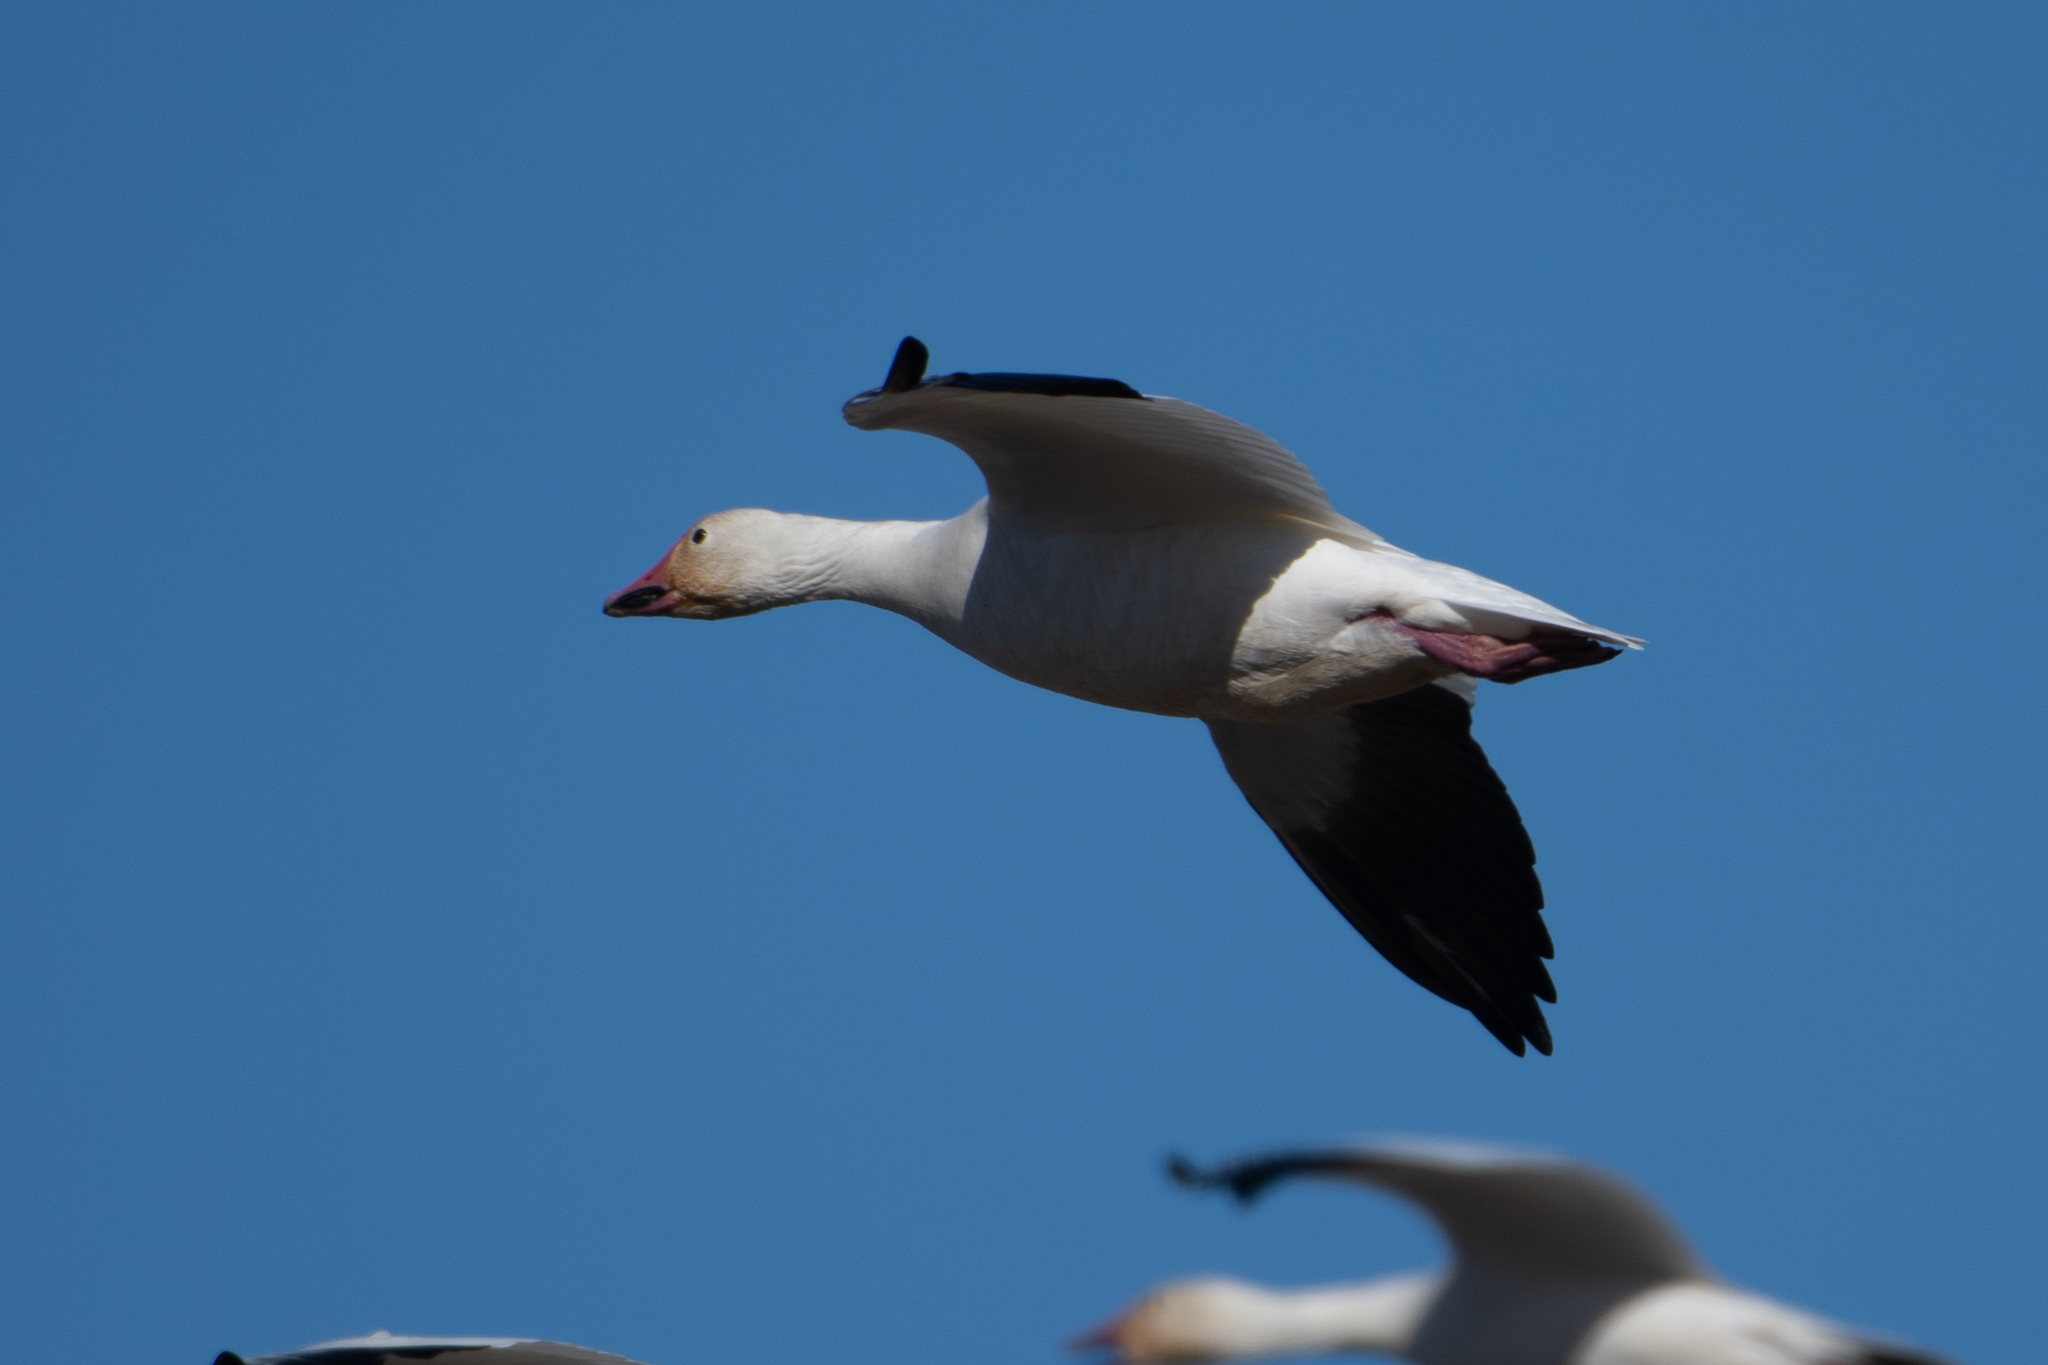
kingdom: Animalia
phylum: Chordata
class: Aves
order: Anseriformes
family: Anatidae
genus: Anser
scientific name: Anser caerulescens
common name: Snow goose
